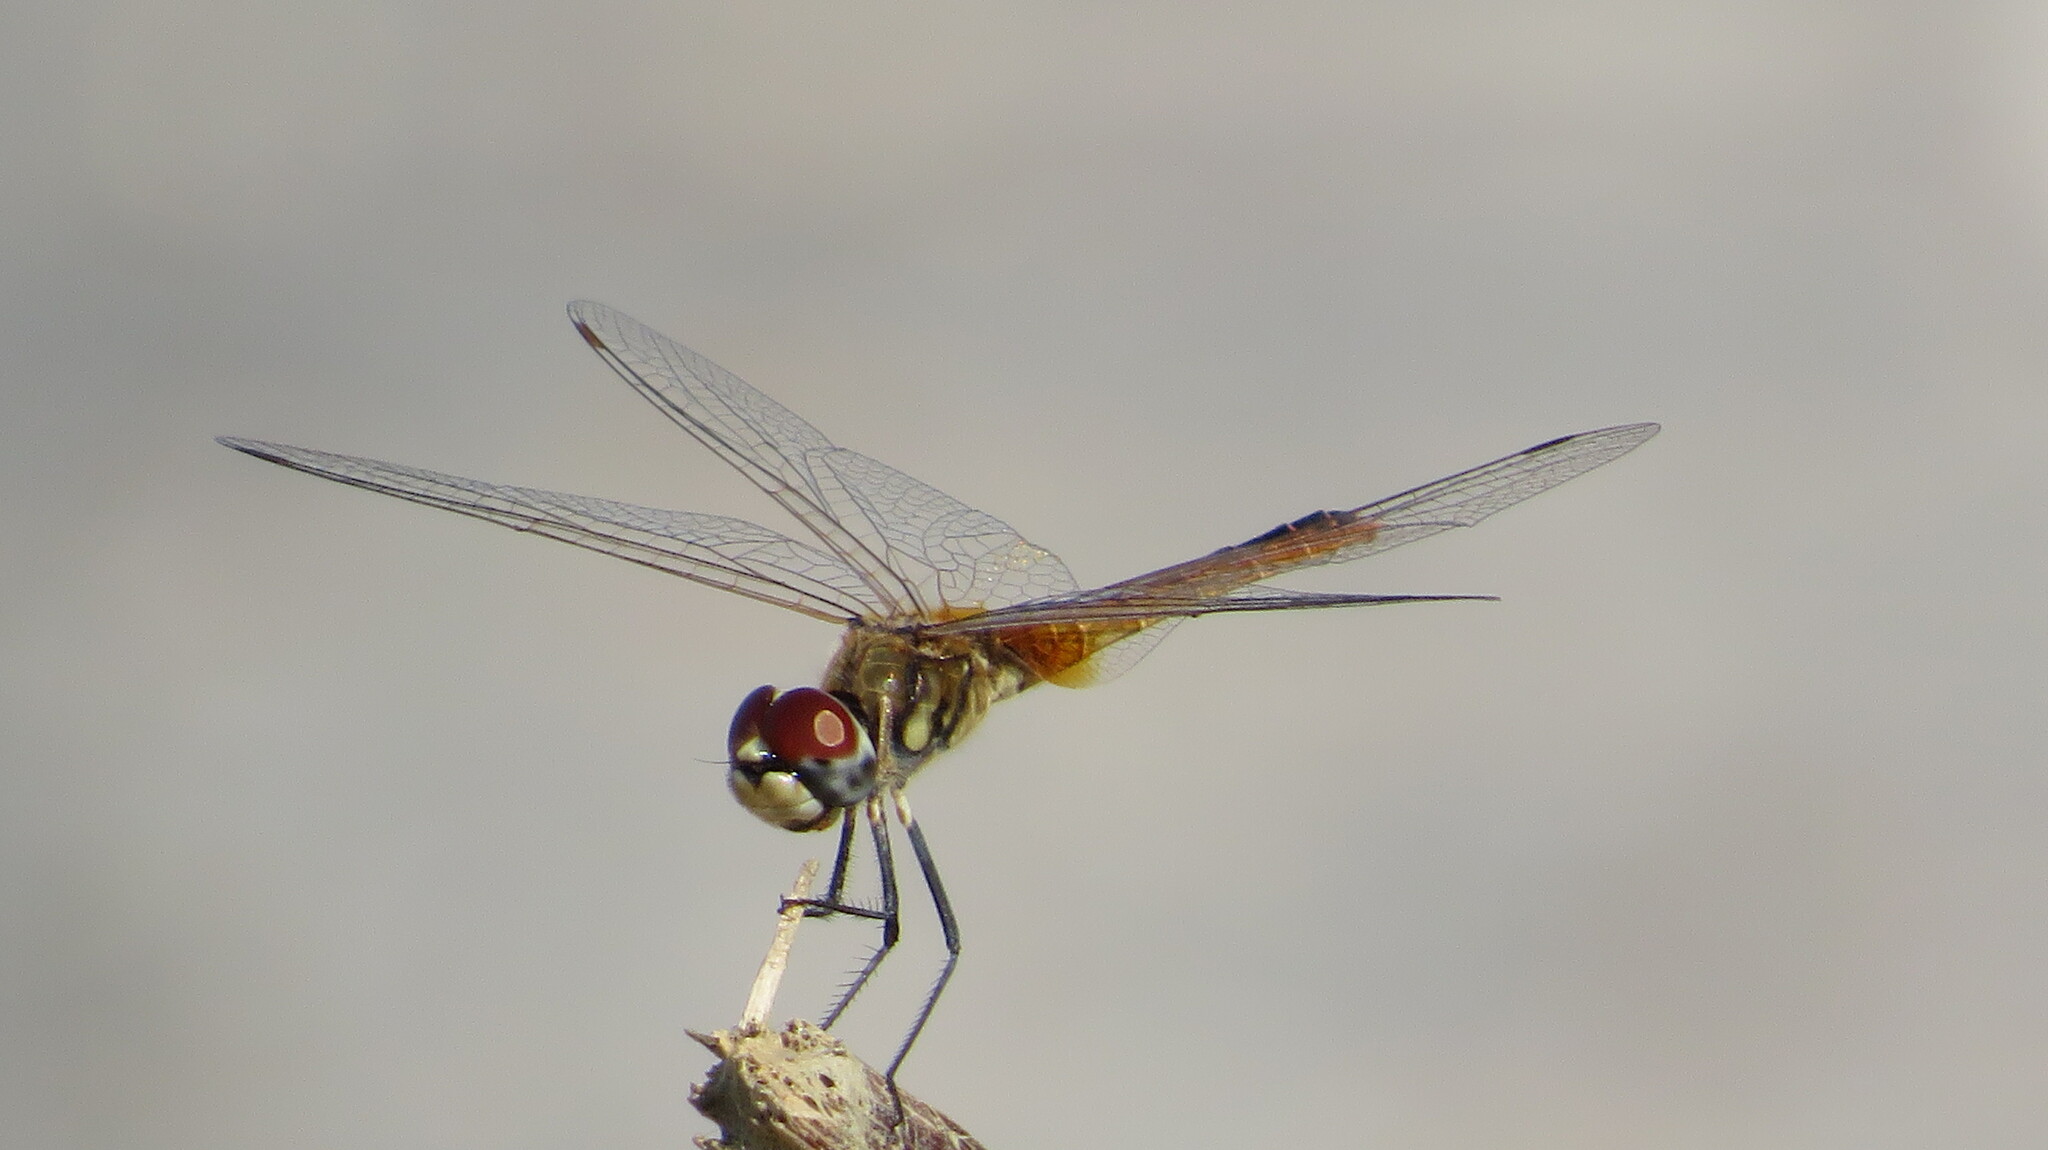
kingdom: Animalia
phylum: Arthropoda
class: Insecta
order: Odonata
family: Libellulidae
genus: Macrodiplax
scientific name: Macrodiplax cora
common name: Coastal glider
